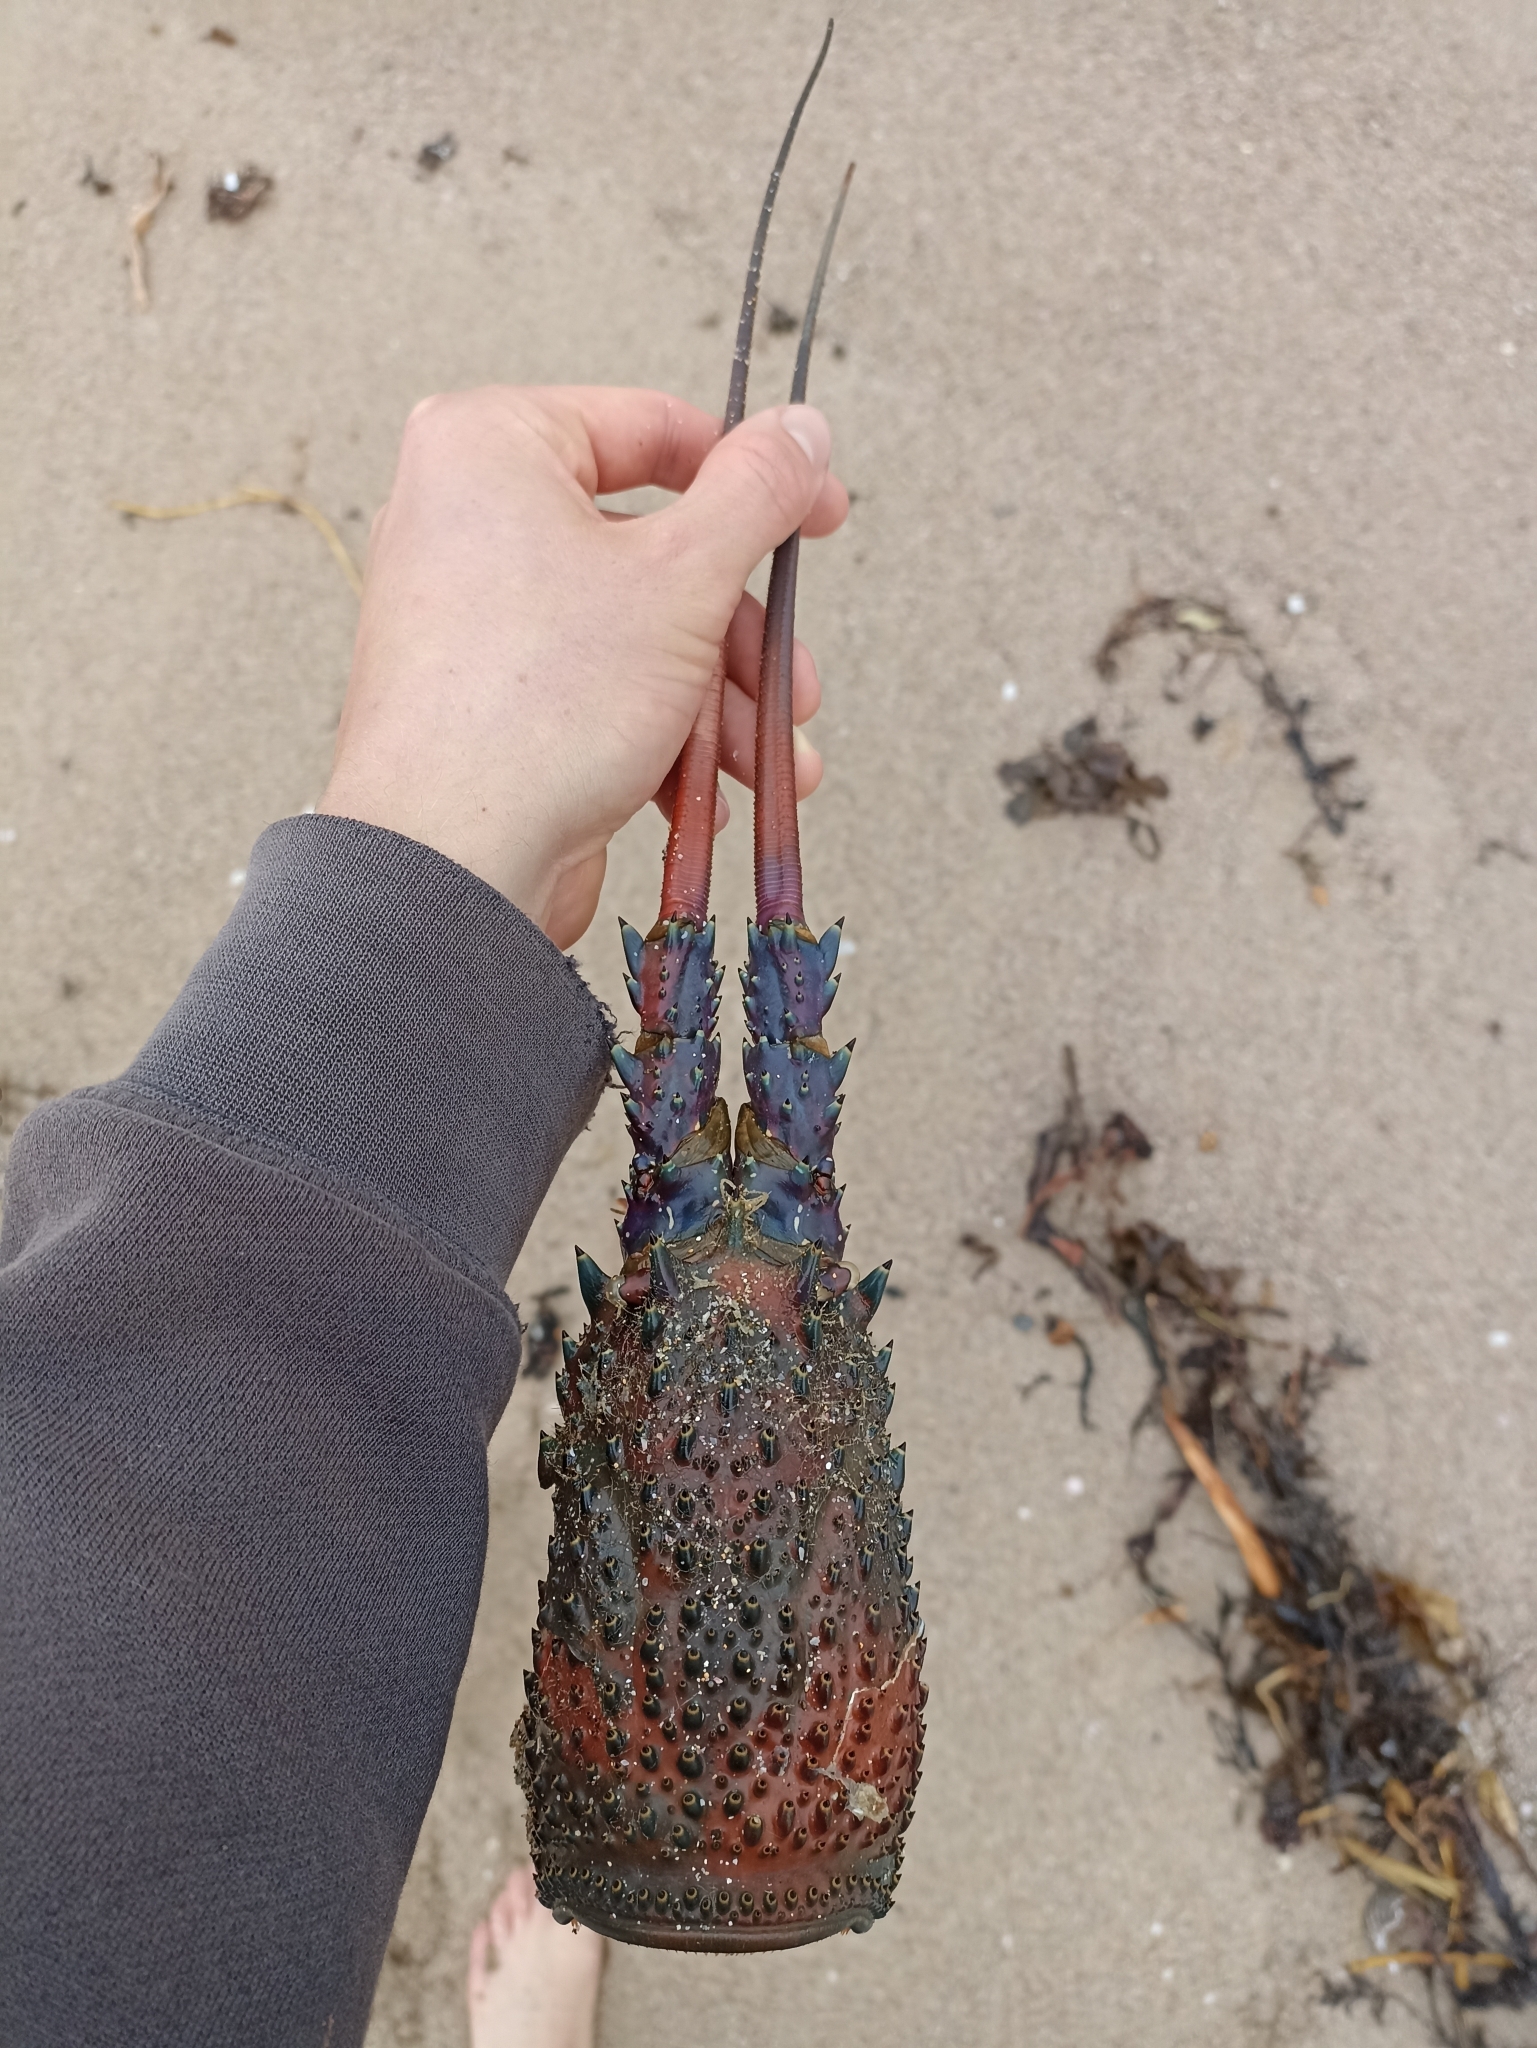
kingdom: Animalia
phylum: Arthropoda
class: Malacostraca
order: Decapoda
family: Palinuridae
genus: Sagmariasus
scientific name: Sagmariasus verreauxi
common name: Green rock lobster
